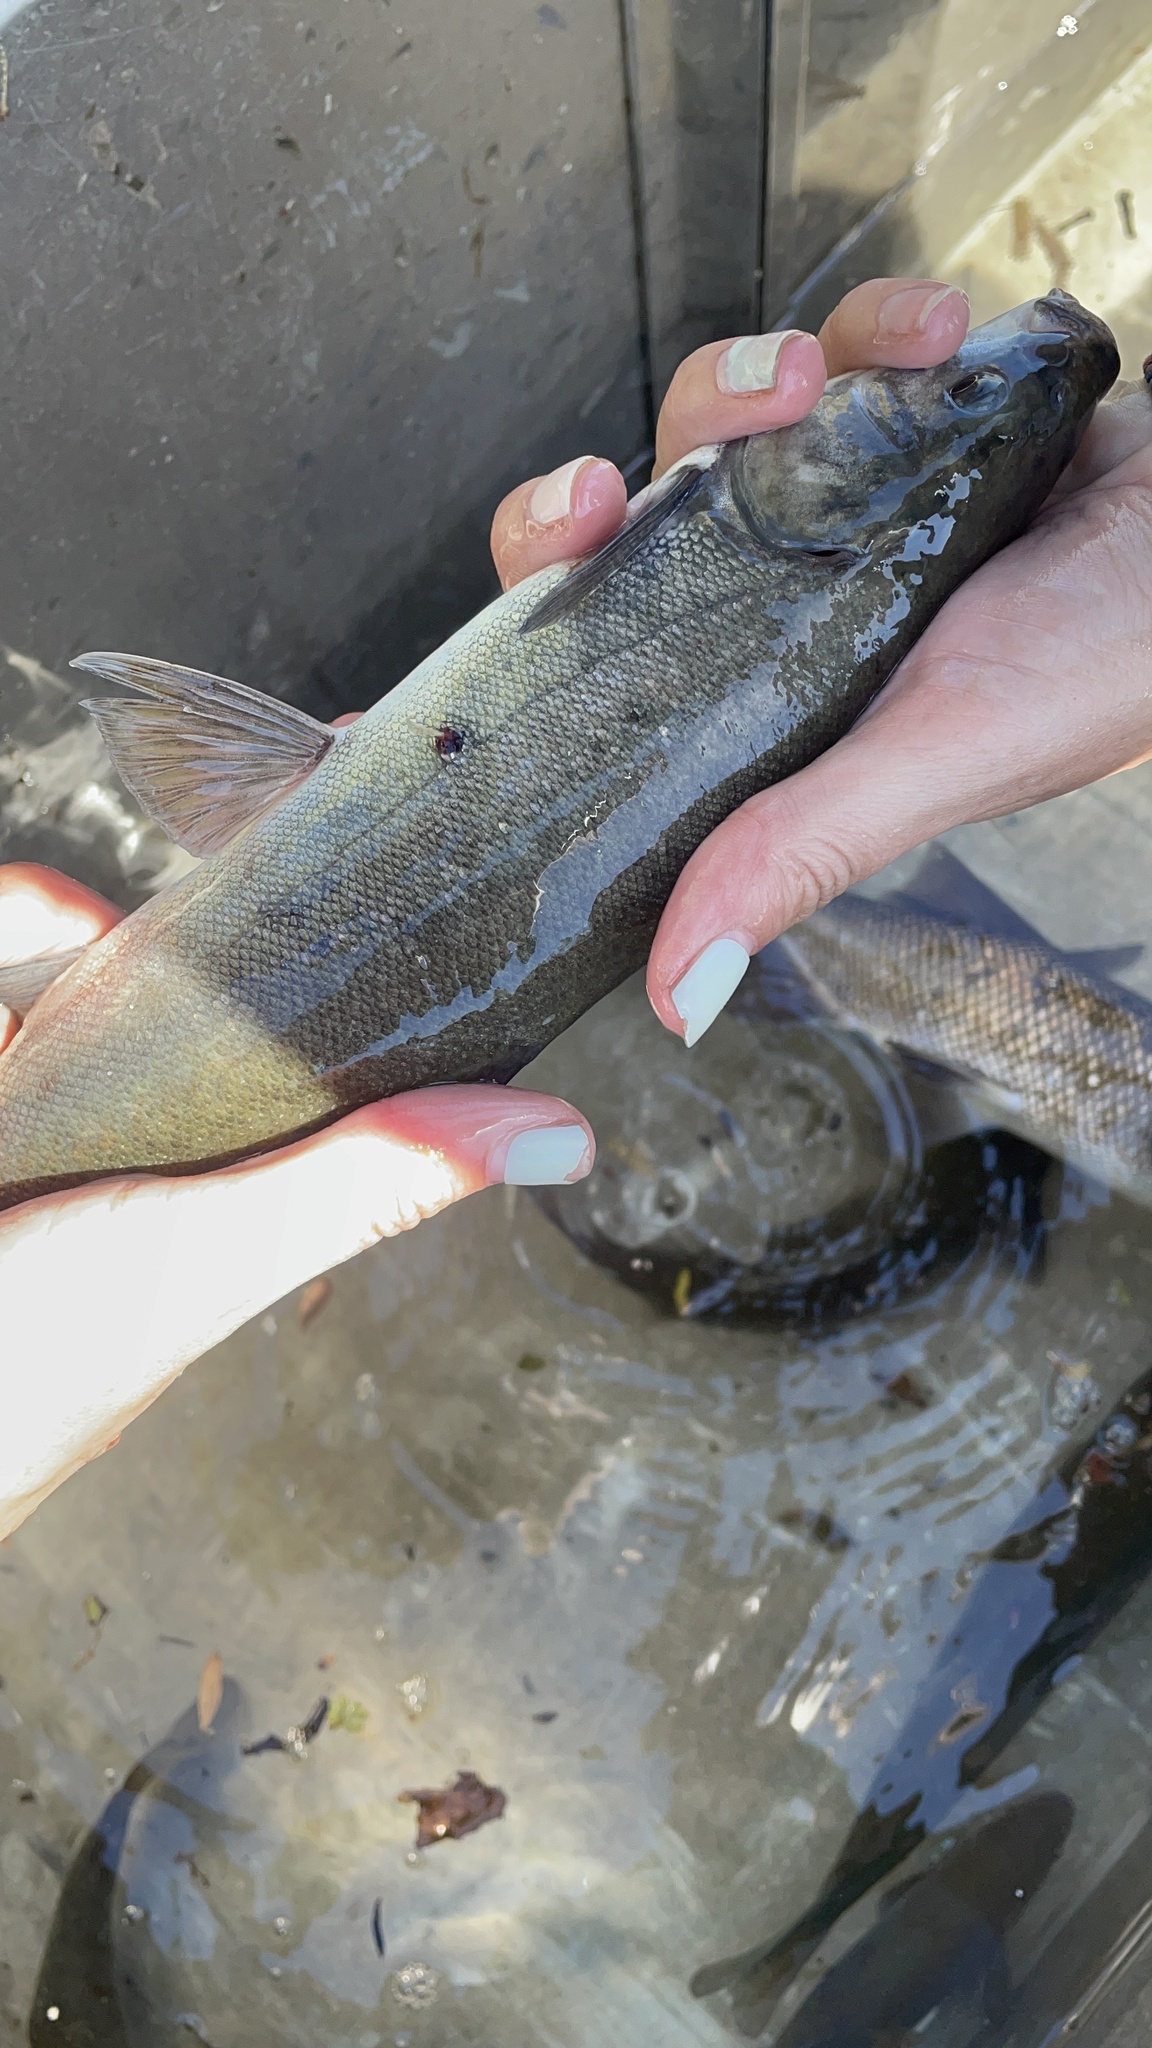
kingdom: Animalia
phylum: Chordata
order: Cypriniformes
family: Cyprinidae
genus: Orthodon
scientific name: Orthodon microlepidotus
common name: Sacramento blackfish
